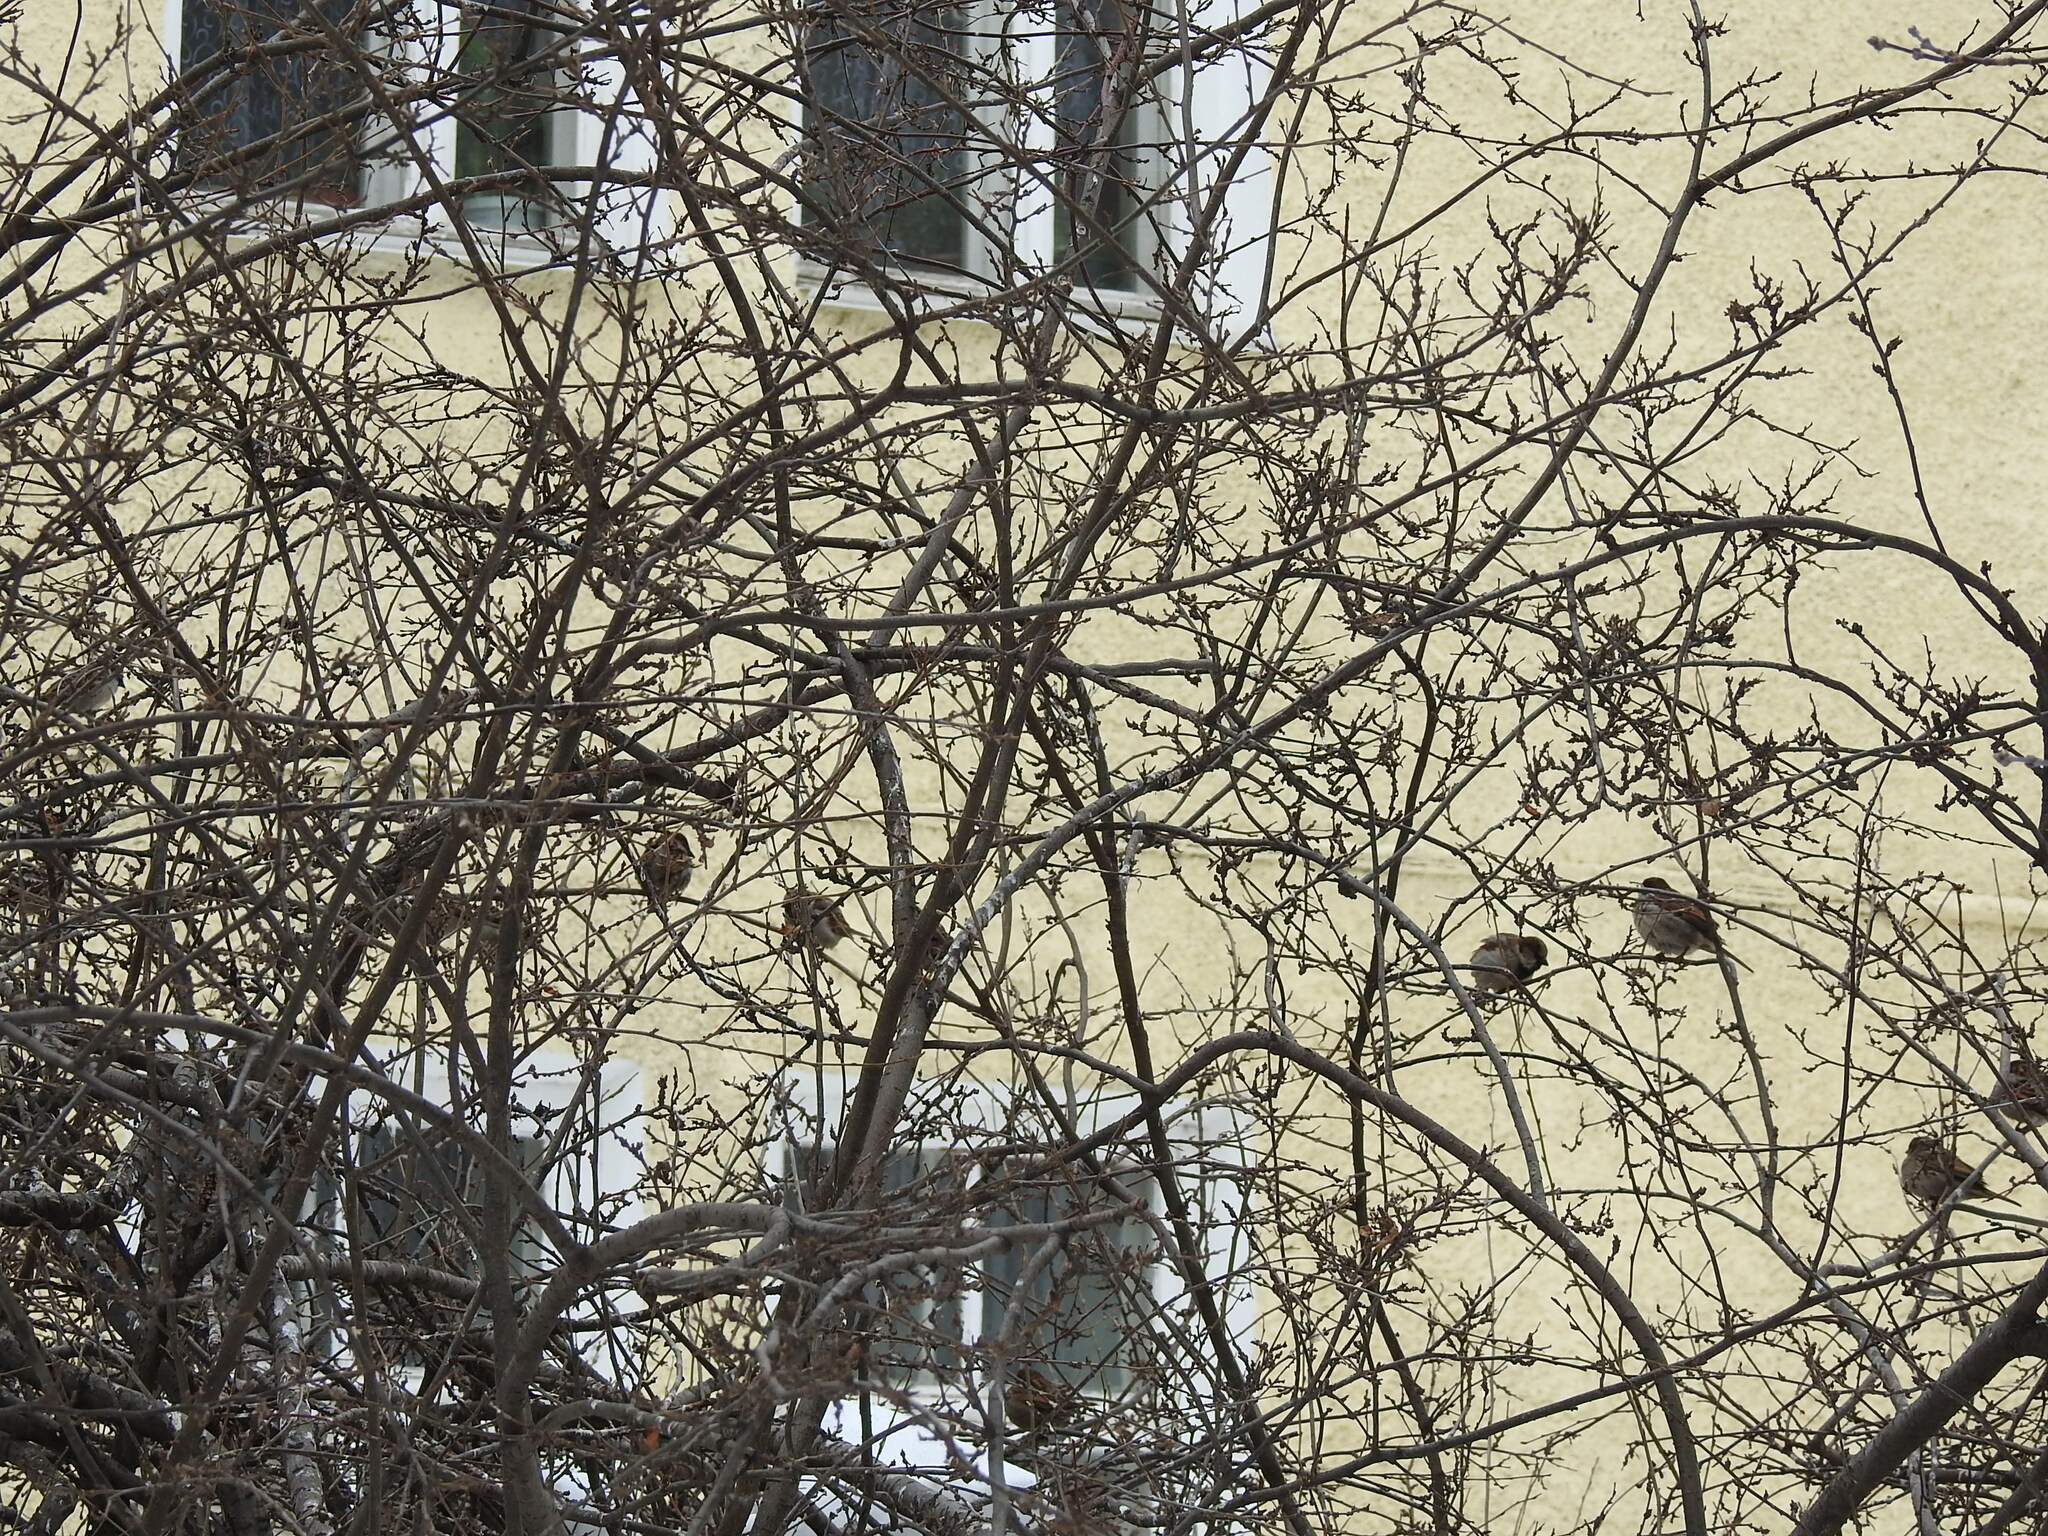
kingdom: Animalia
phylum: Chordata
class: Aves
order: Passeriformes
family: Passeridae
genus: Passer
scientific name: Passer domesticus
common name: House sparrow
